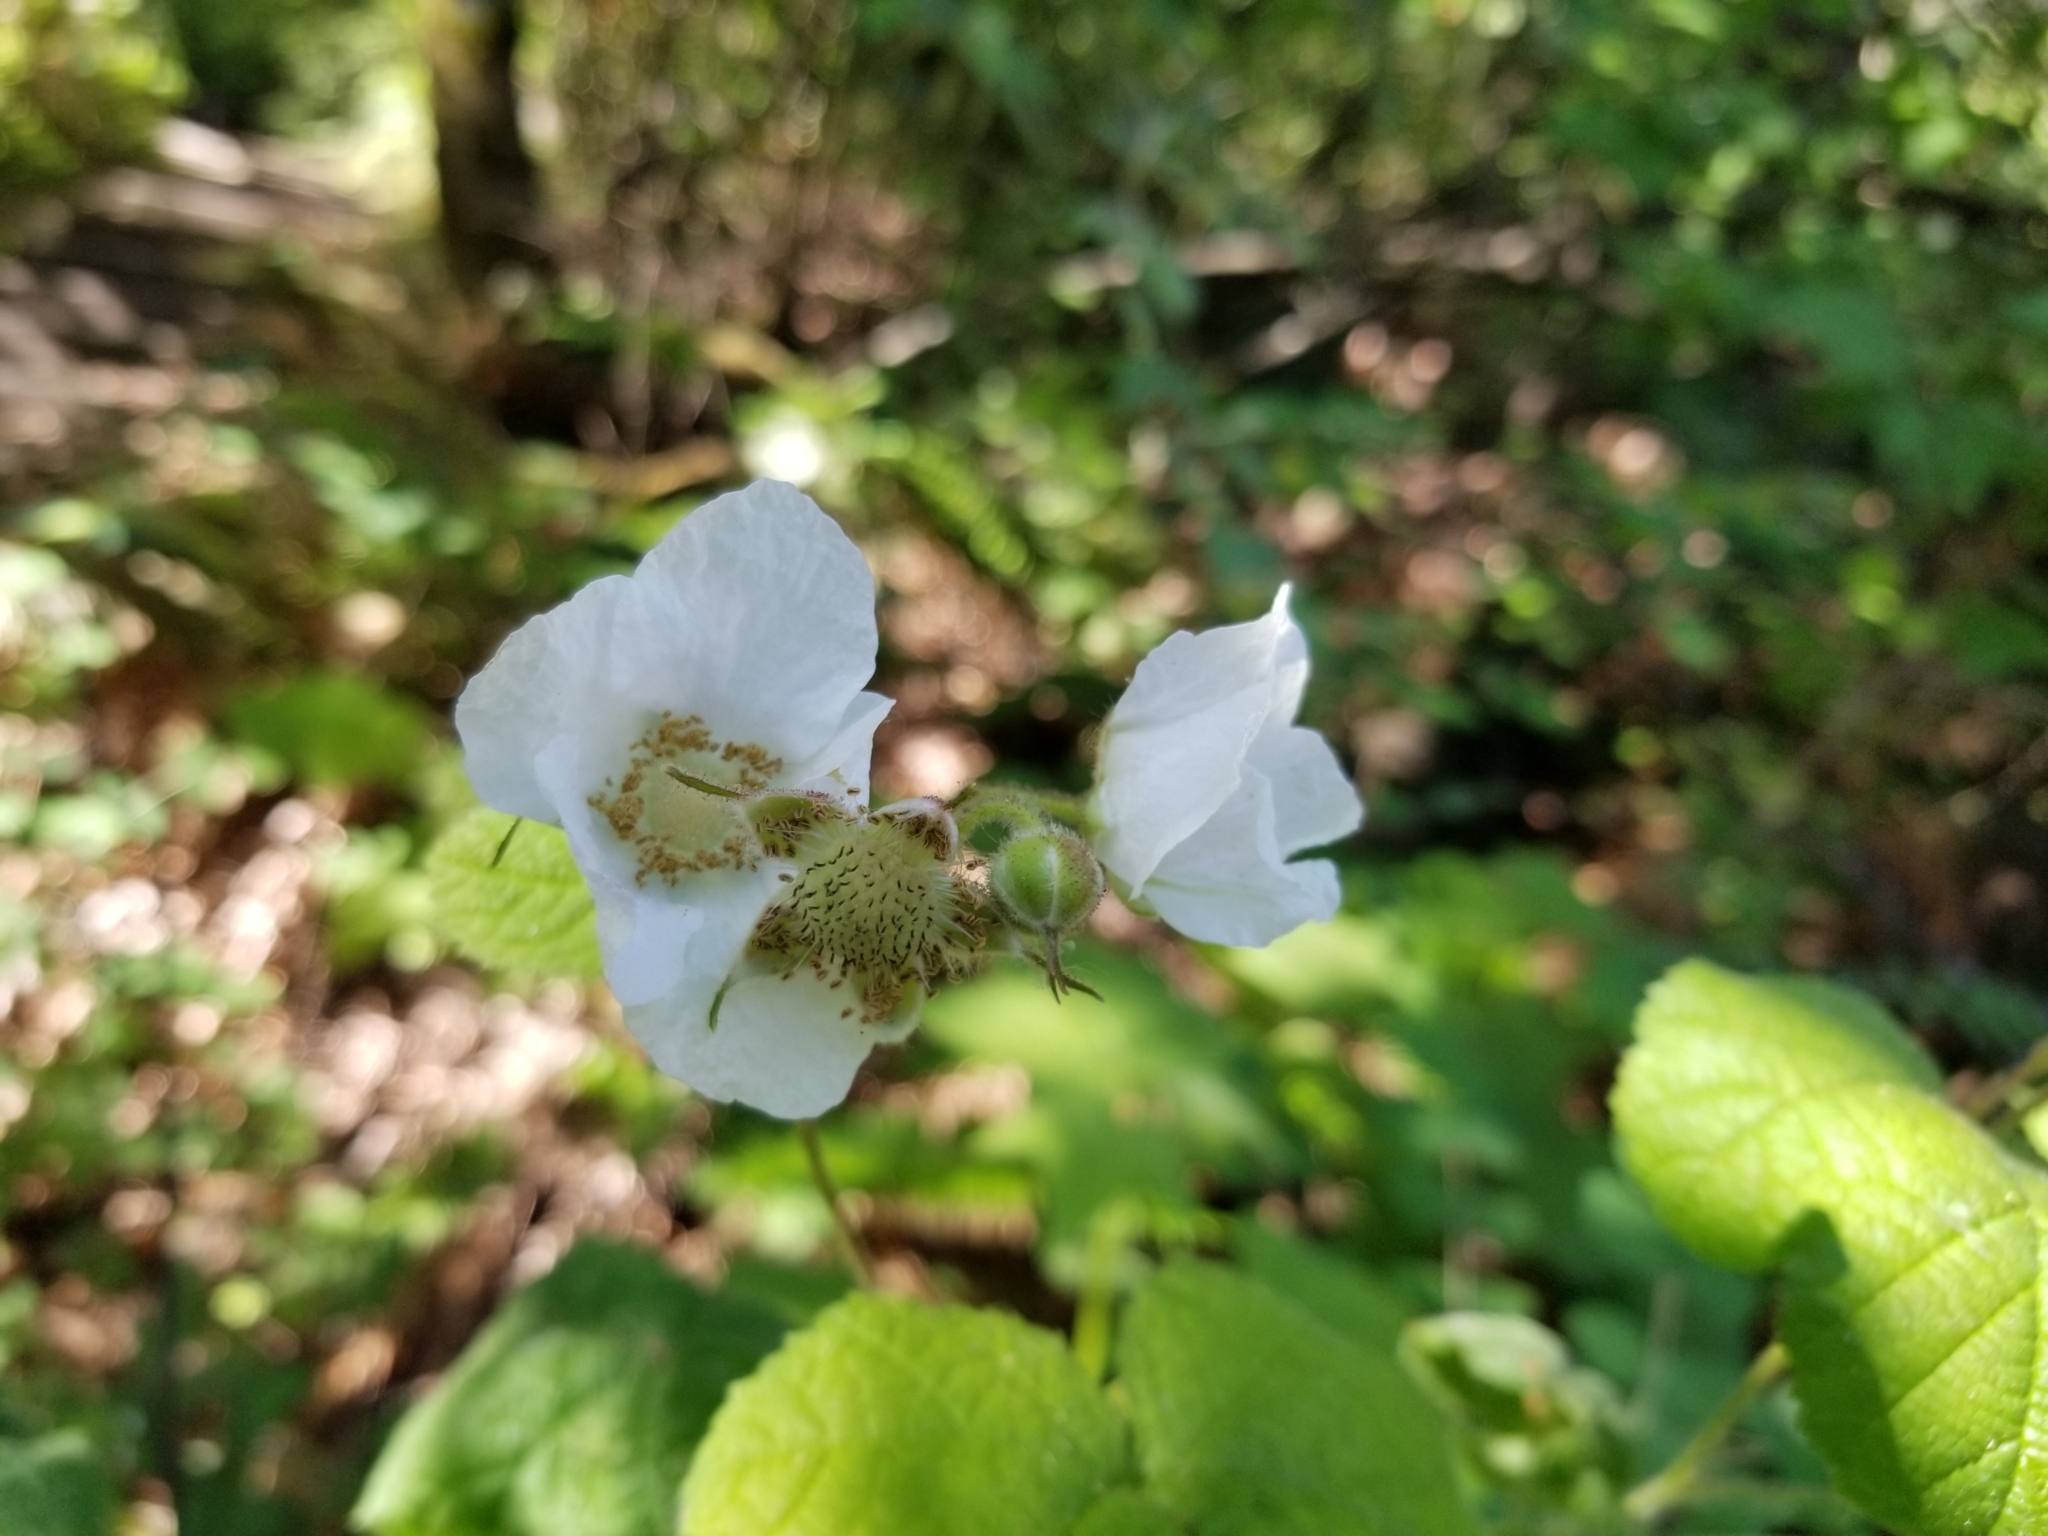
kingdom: Plantae
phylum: Tracheophyta
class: Magnoliopsida
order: Rosales
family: Rosaceae
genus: Rubus
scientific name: Rubus parviflorus
